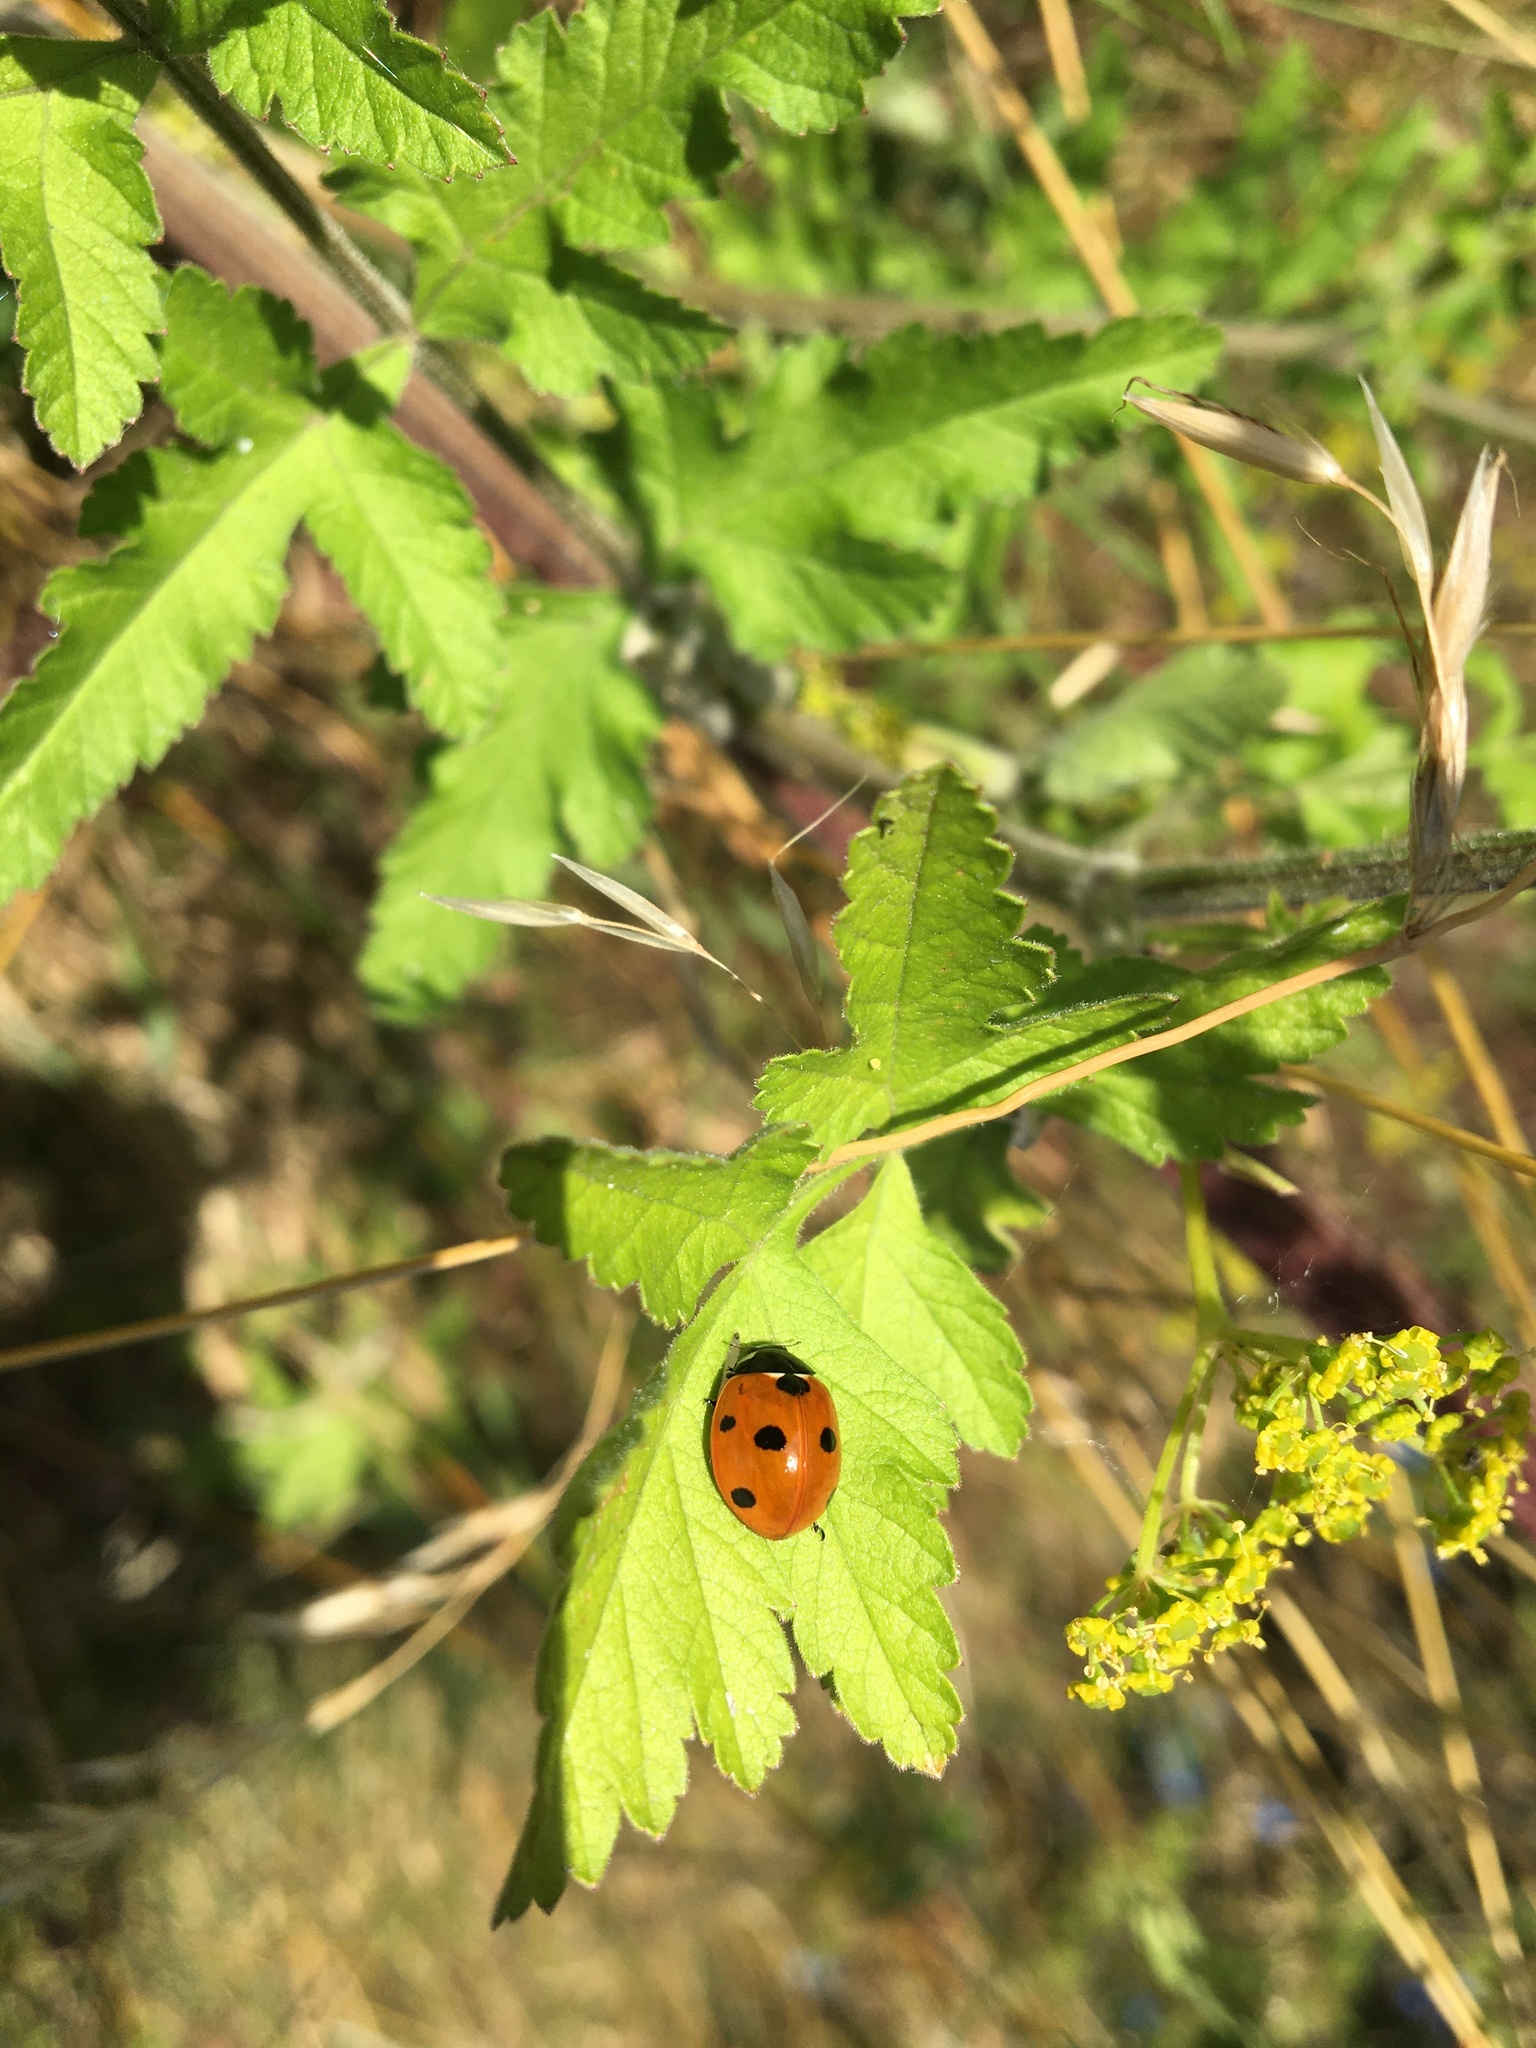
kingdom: Animalia
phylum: Arthropoda
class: Insecta
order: Coleoptera
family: Coccinellidae
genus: Coccinella
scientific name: Coccinella septempunctata
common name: Sevenspotted lady beetle
